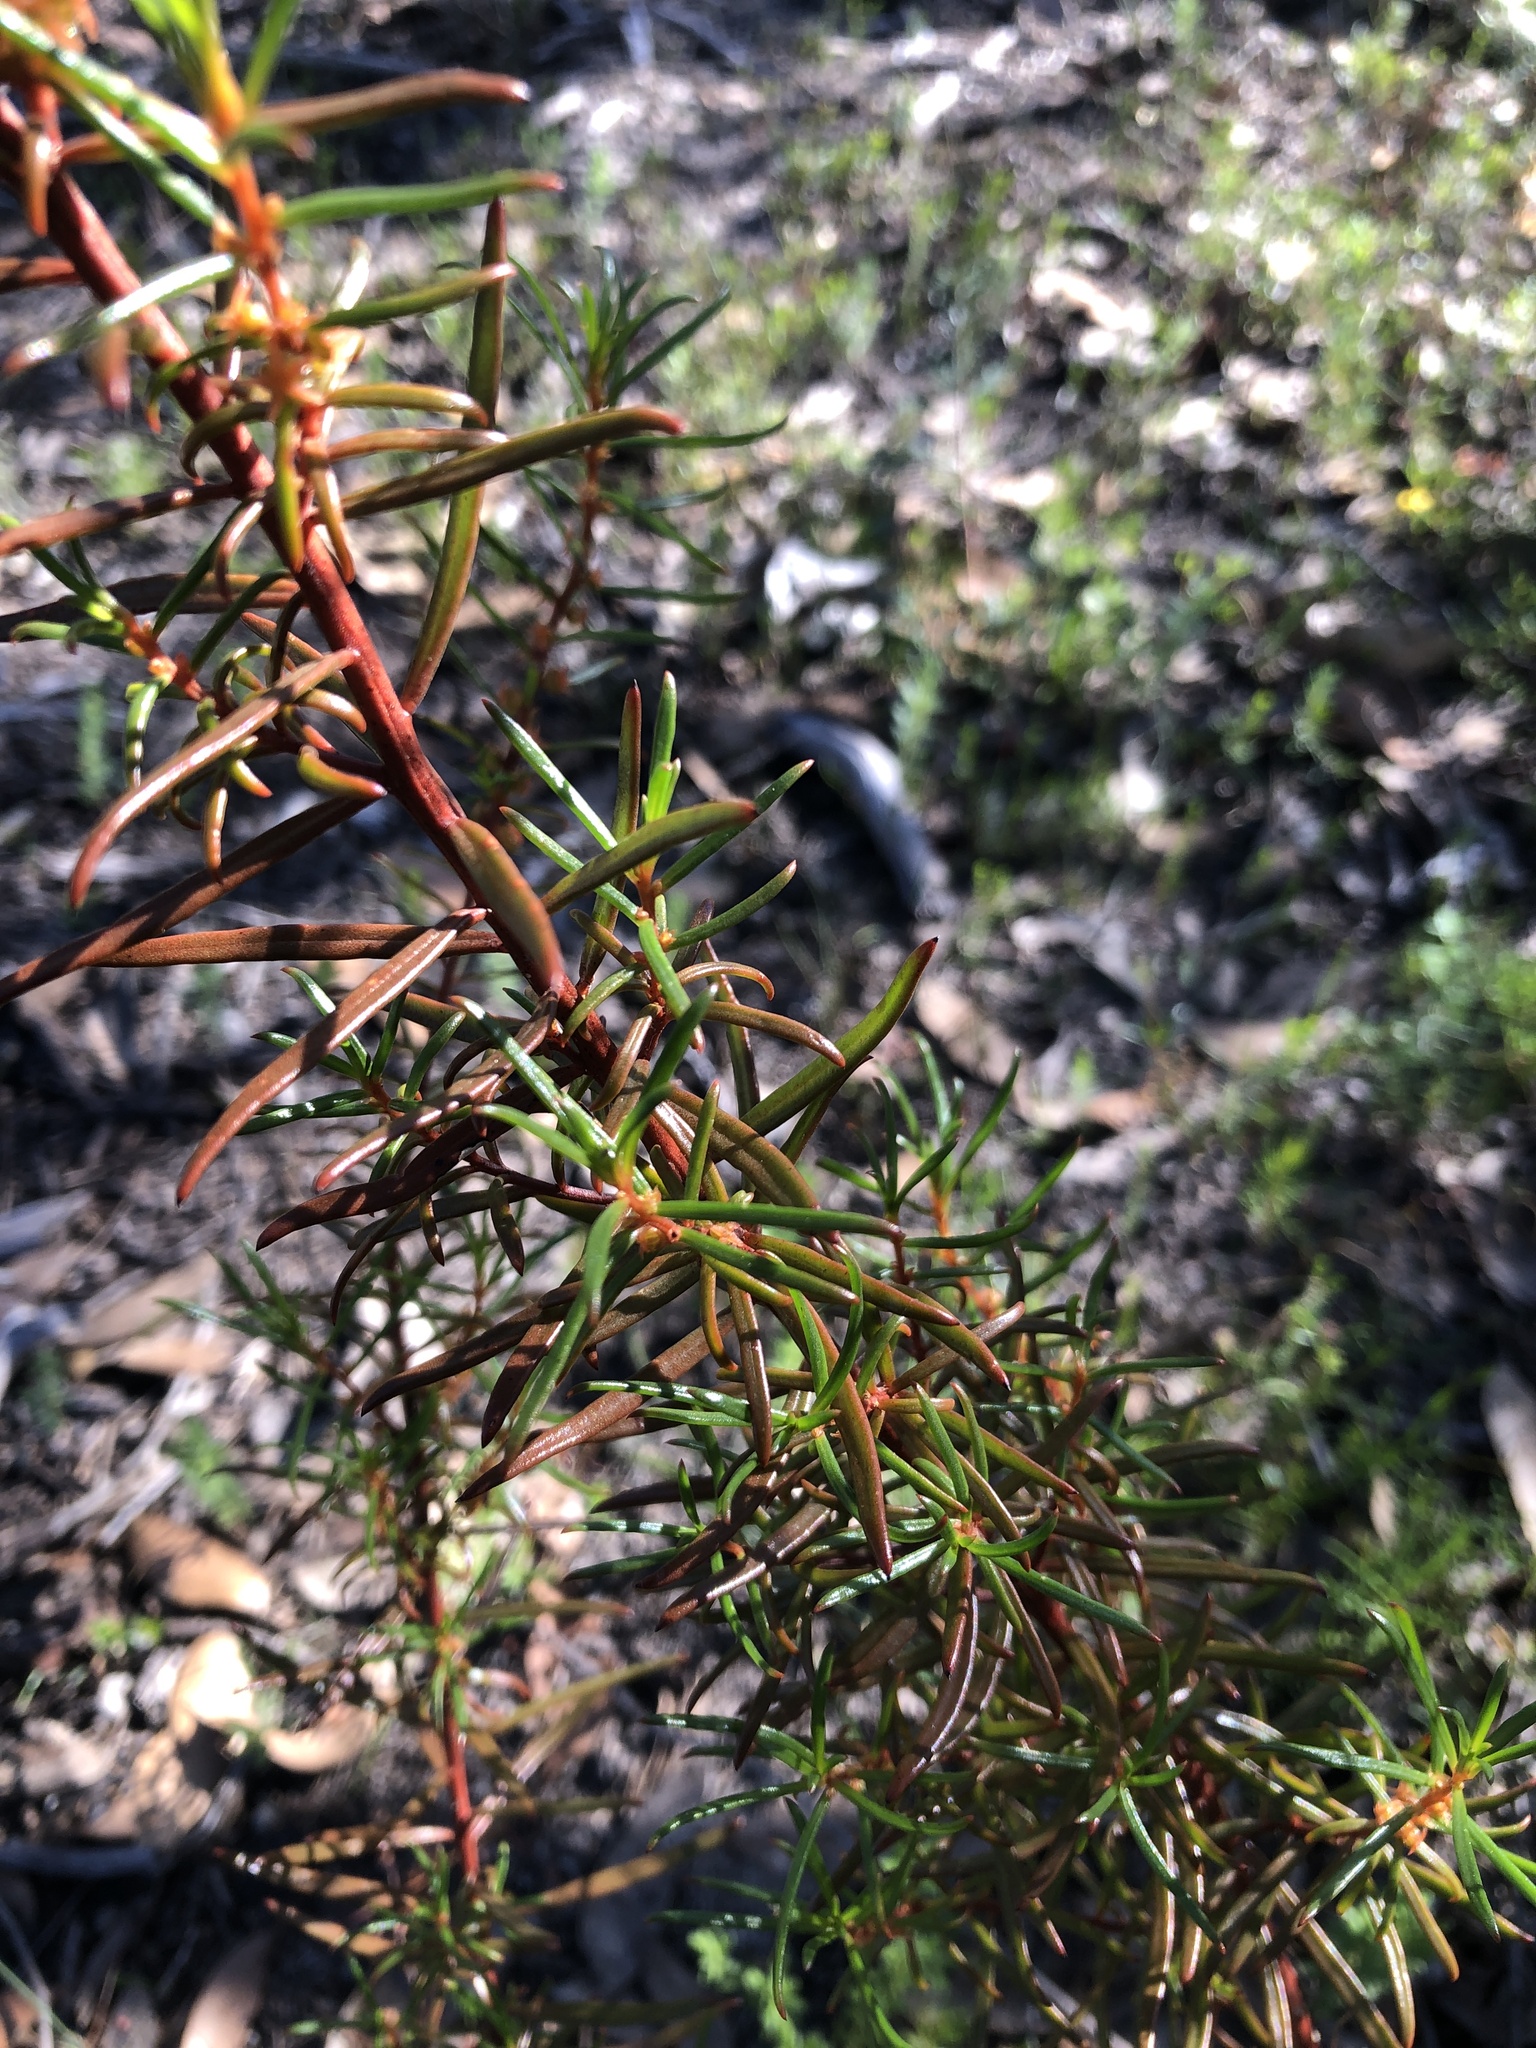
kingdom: Plantae
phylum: Tracheophyta
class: Magnoliopsida
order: Brassicales
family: Gyrostemonaceae
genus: Gyrostemon
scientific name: Gyrostemon australasicus
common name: Wheelfruit
